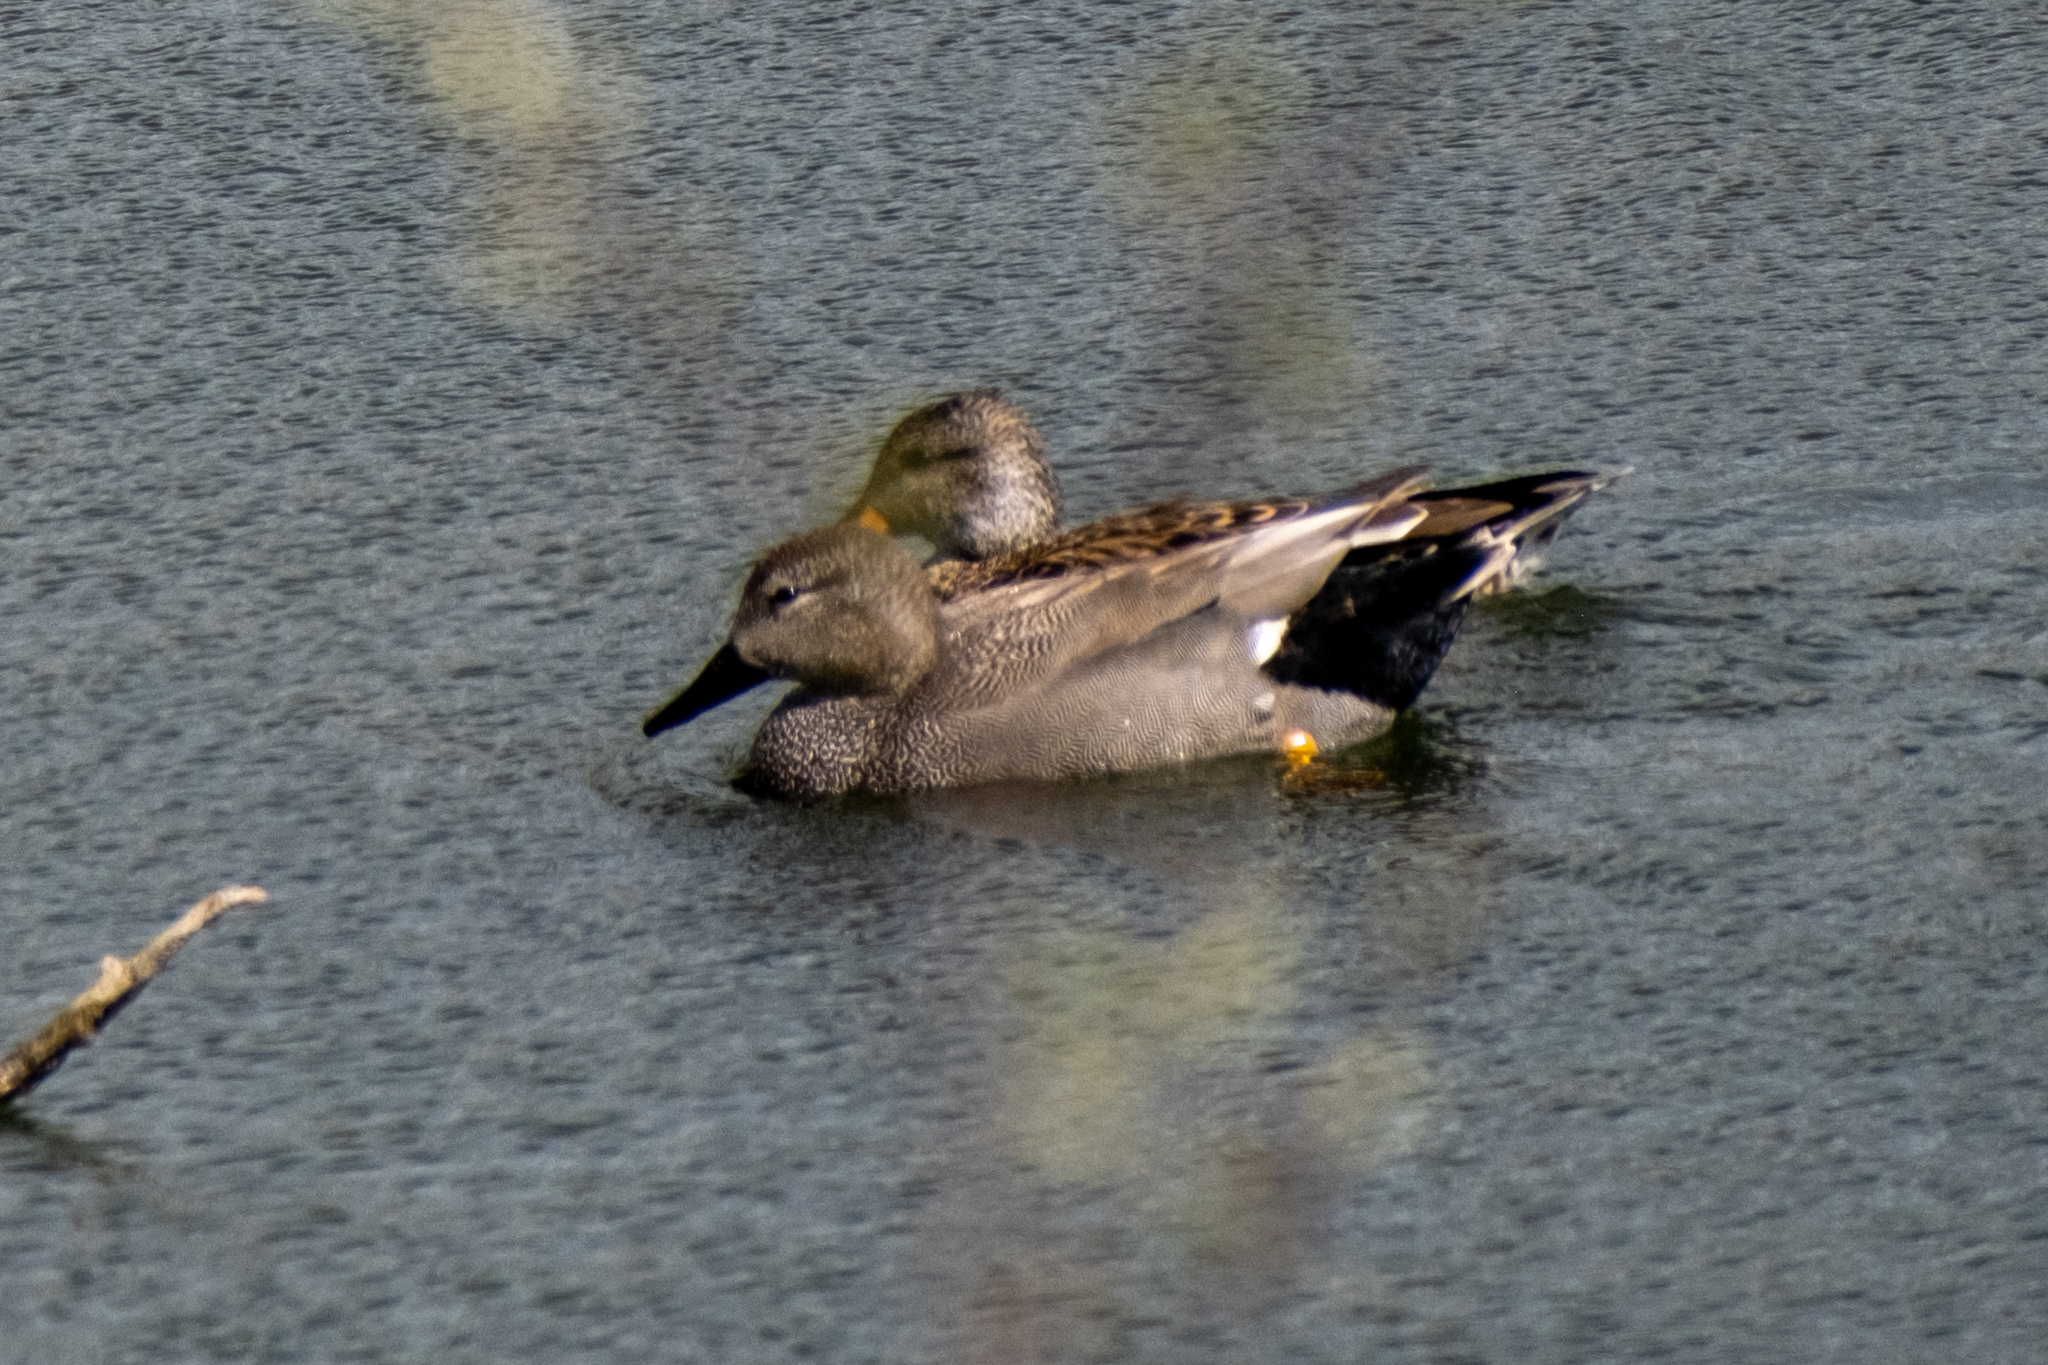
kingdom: Animalia
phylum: Chordata
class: Aves
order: Anseriformes
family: Anatidae
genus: Mareca
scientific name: Mareca strepera
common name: Gadwall
